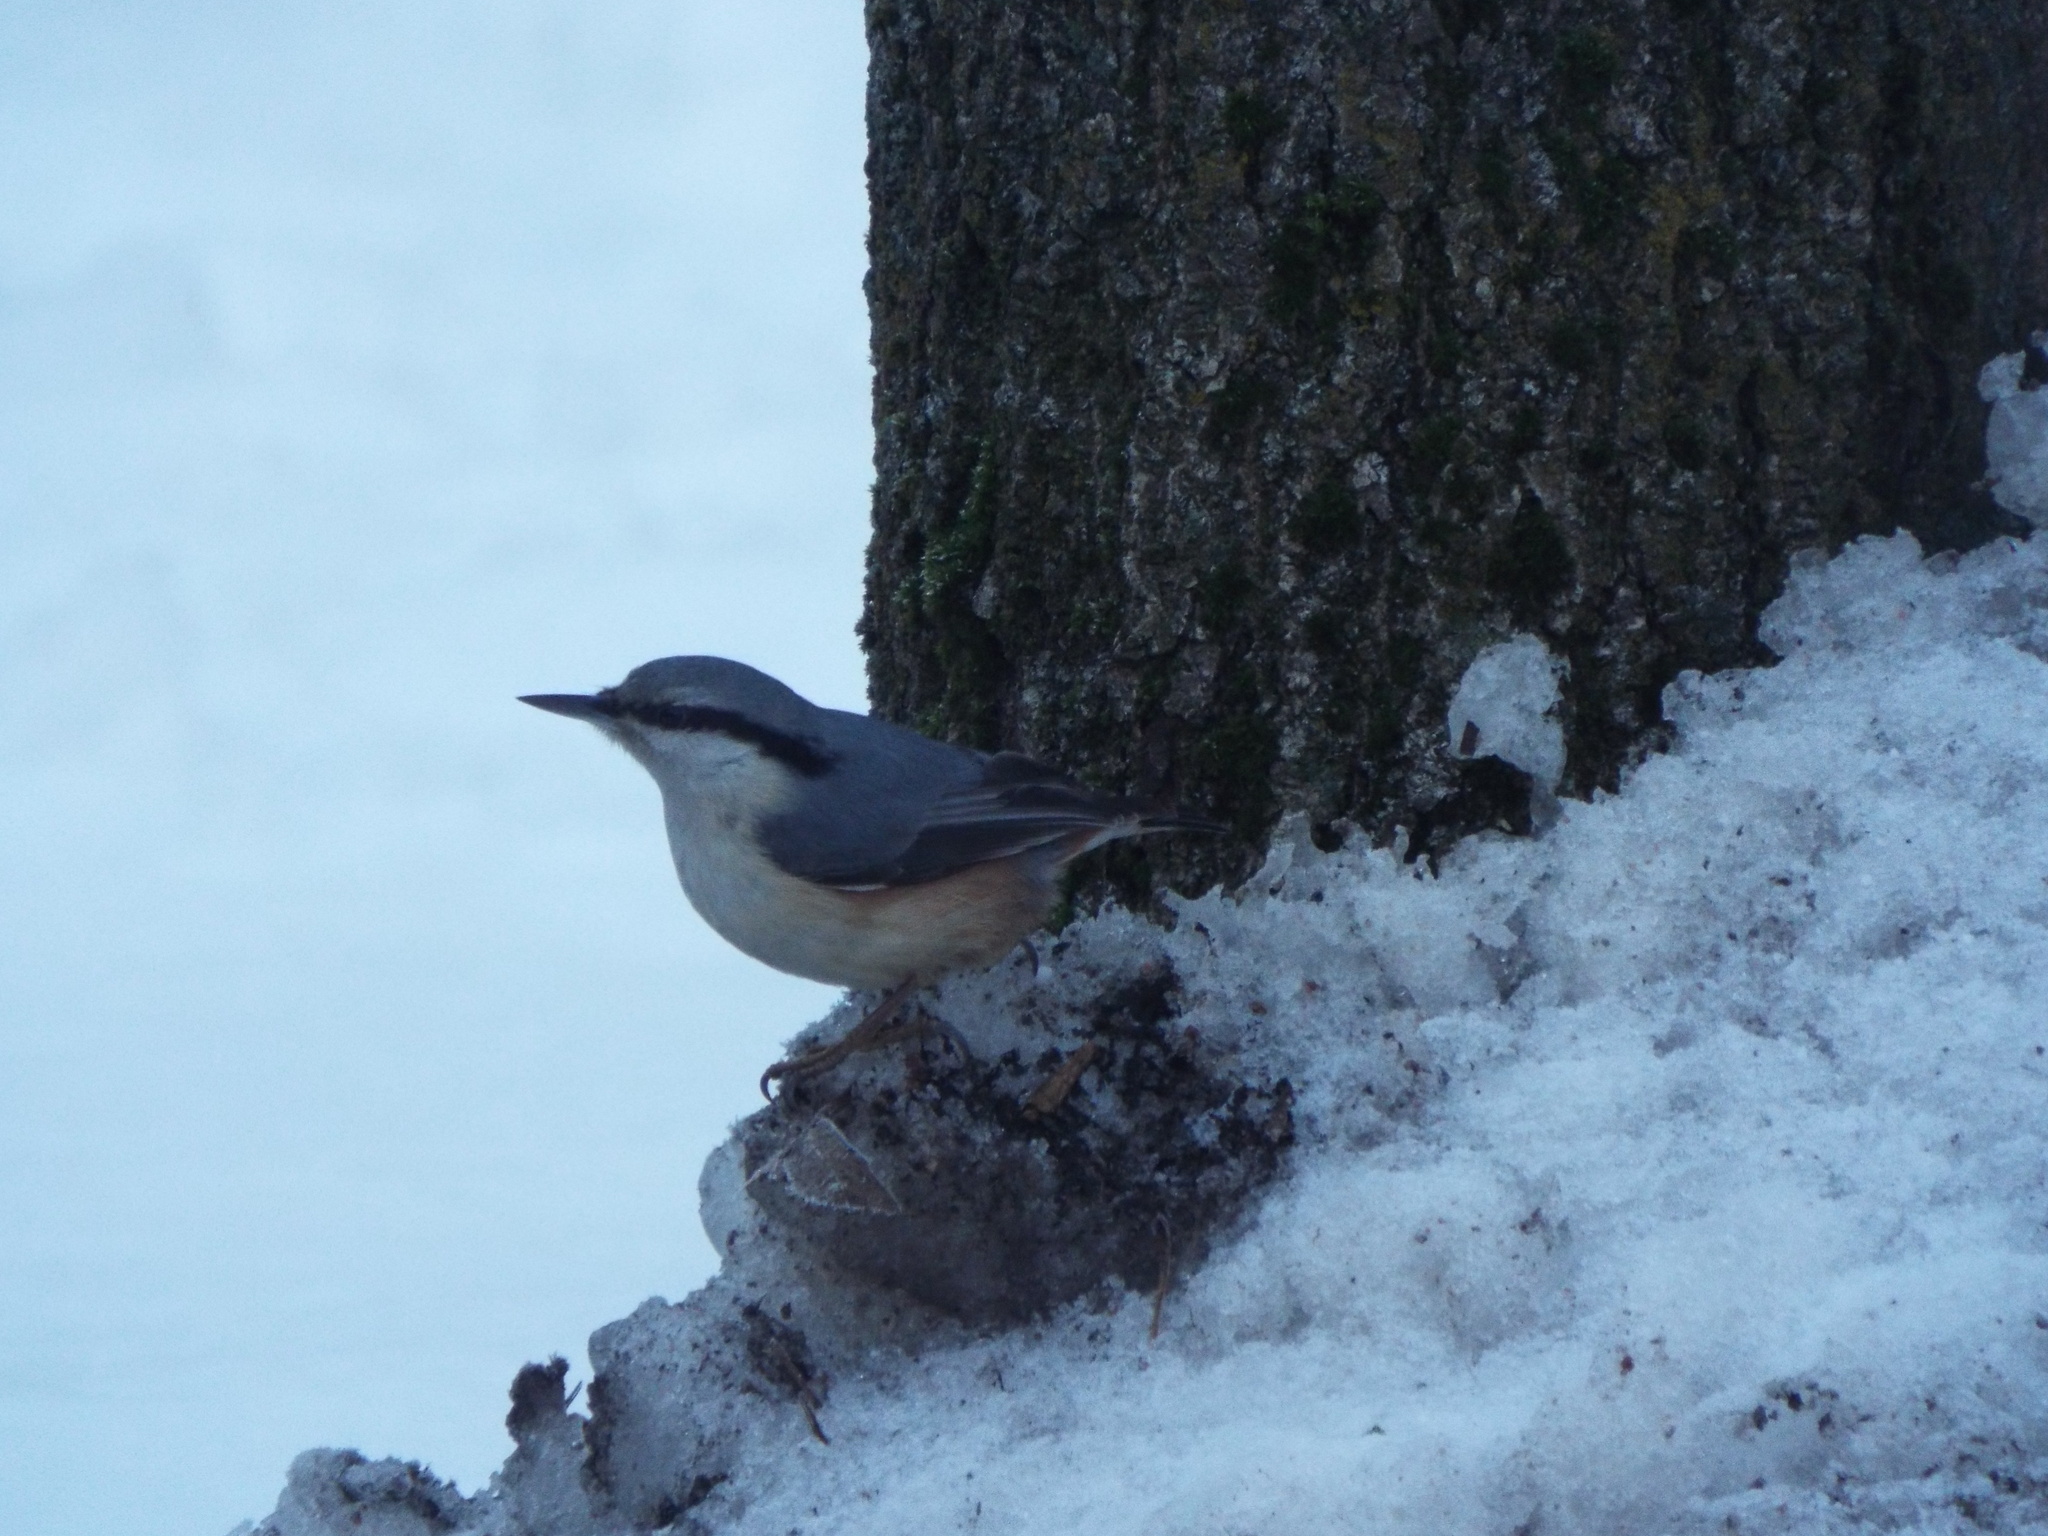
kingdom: Animalia
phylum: Chordata
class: Aves
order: Passeriformes
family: Sittidae
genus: Sitta
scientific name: Sitta europaea
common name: Eurasian nuthatch
